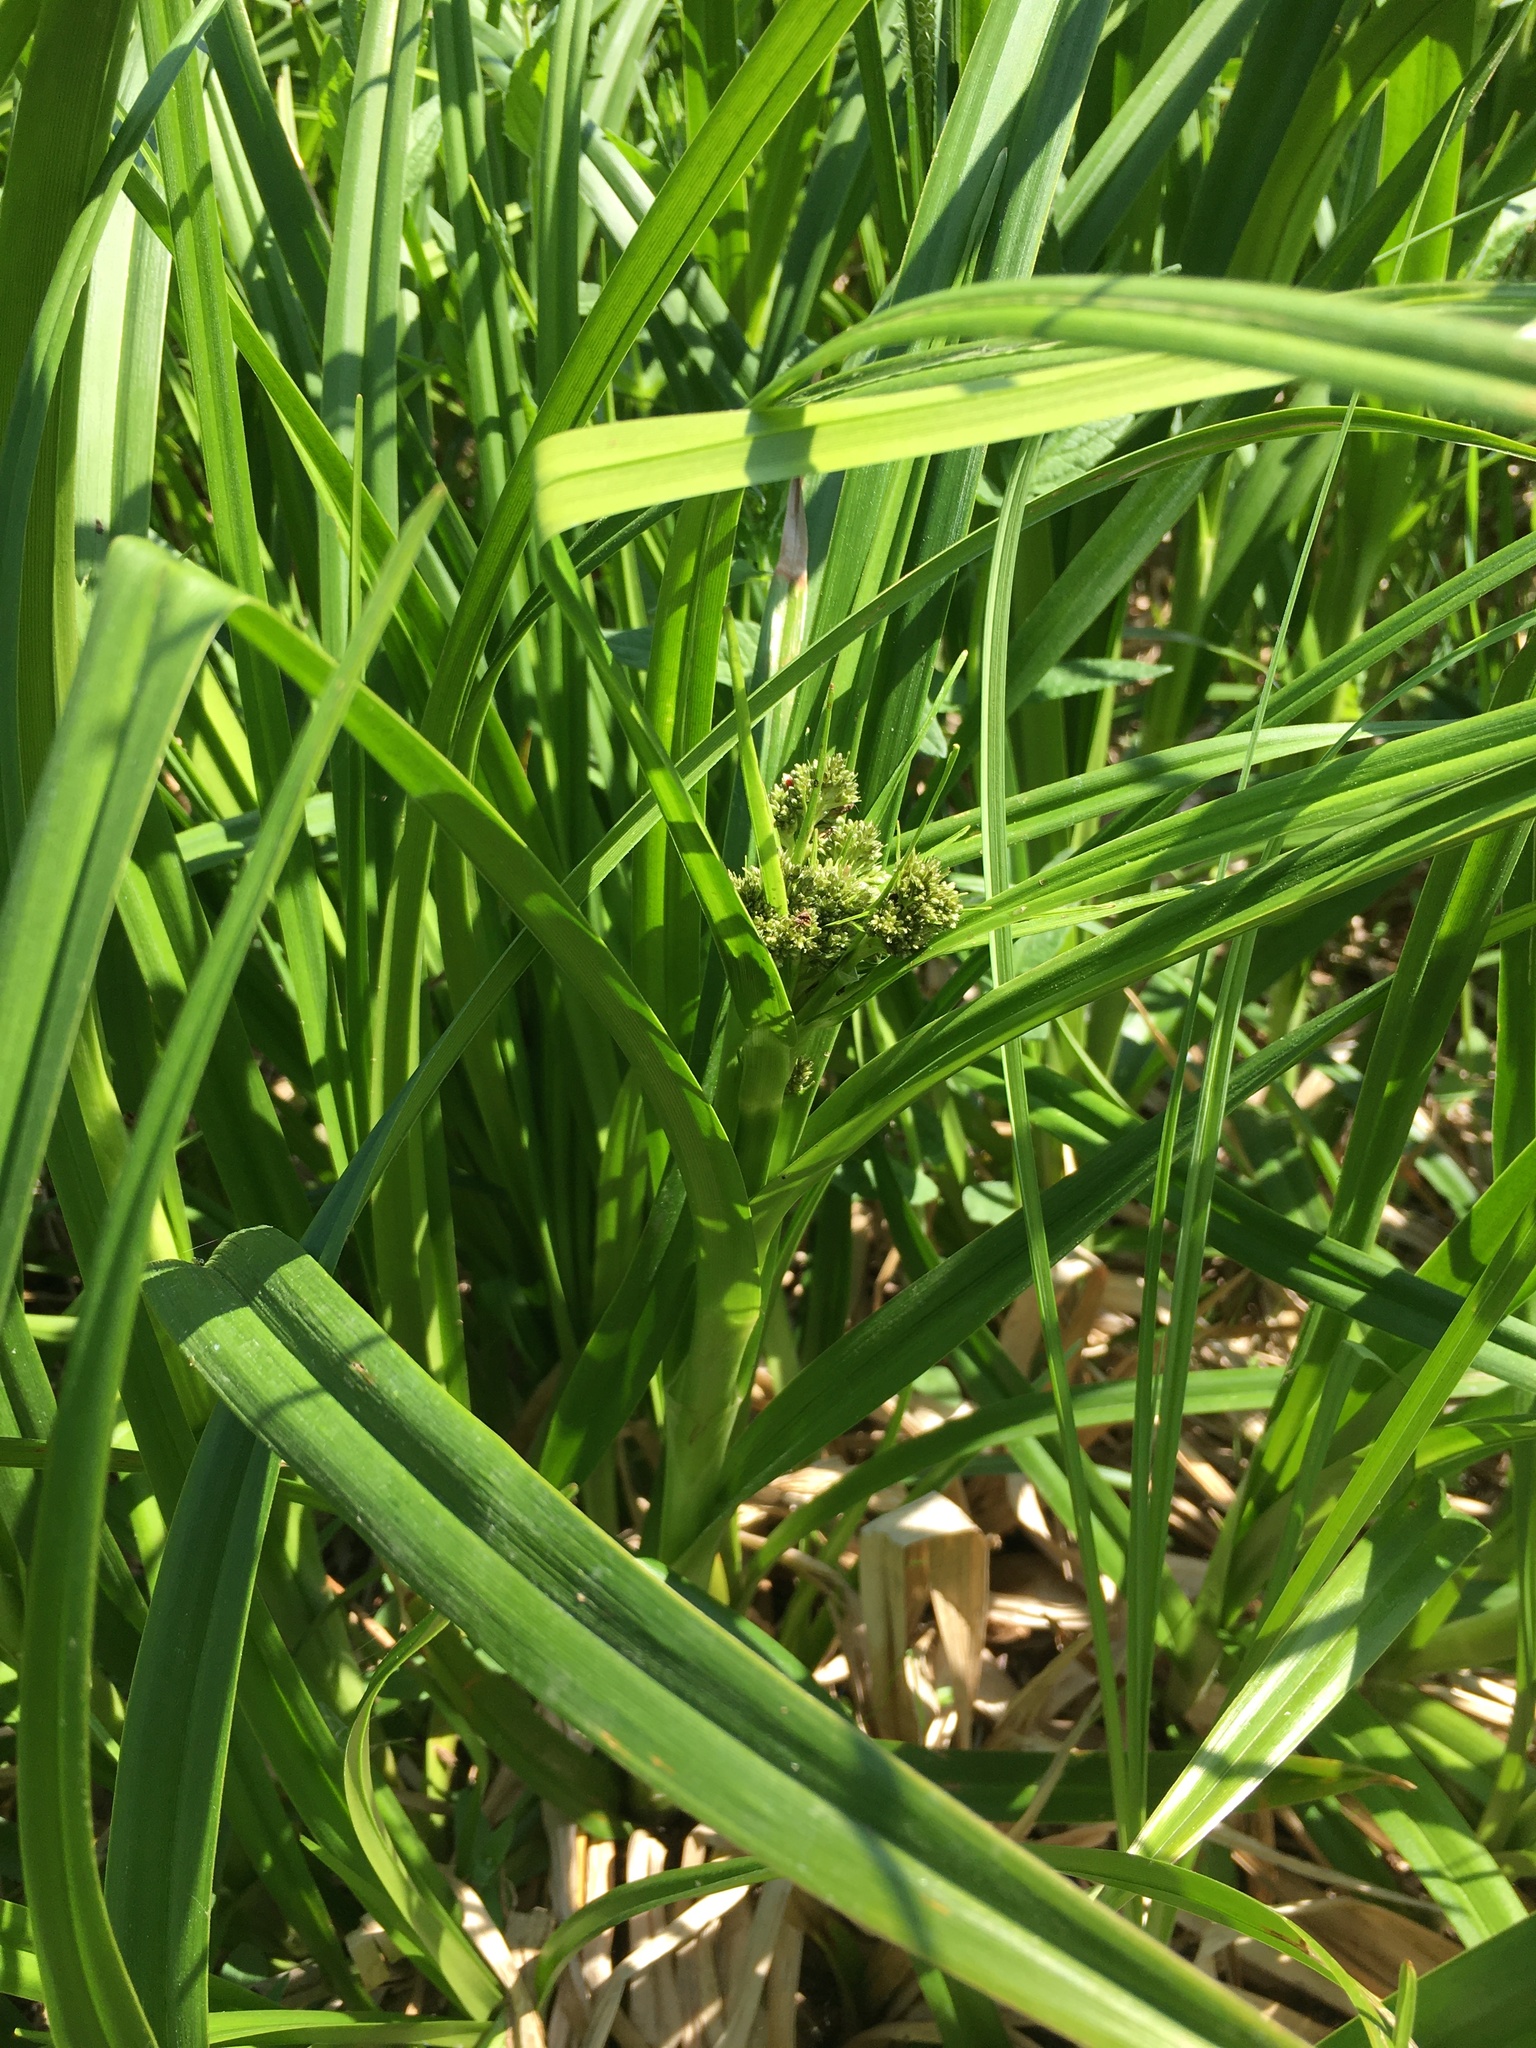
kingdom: Plantae
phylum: Tracheophyta
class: Liliopsida
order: Poales
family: Cyperaceae
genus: Scirpus
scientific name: Scirpus sylvaticus
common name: Wood club-rush
